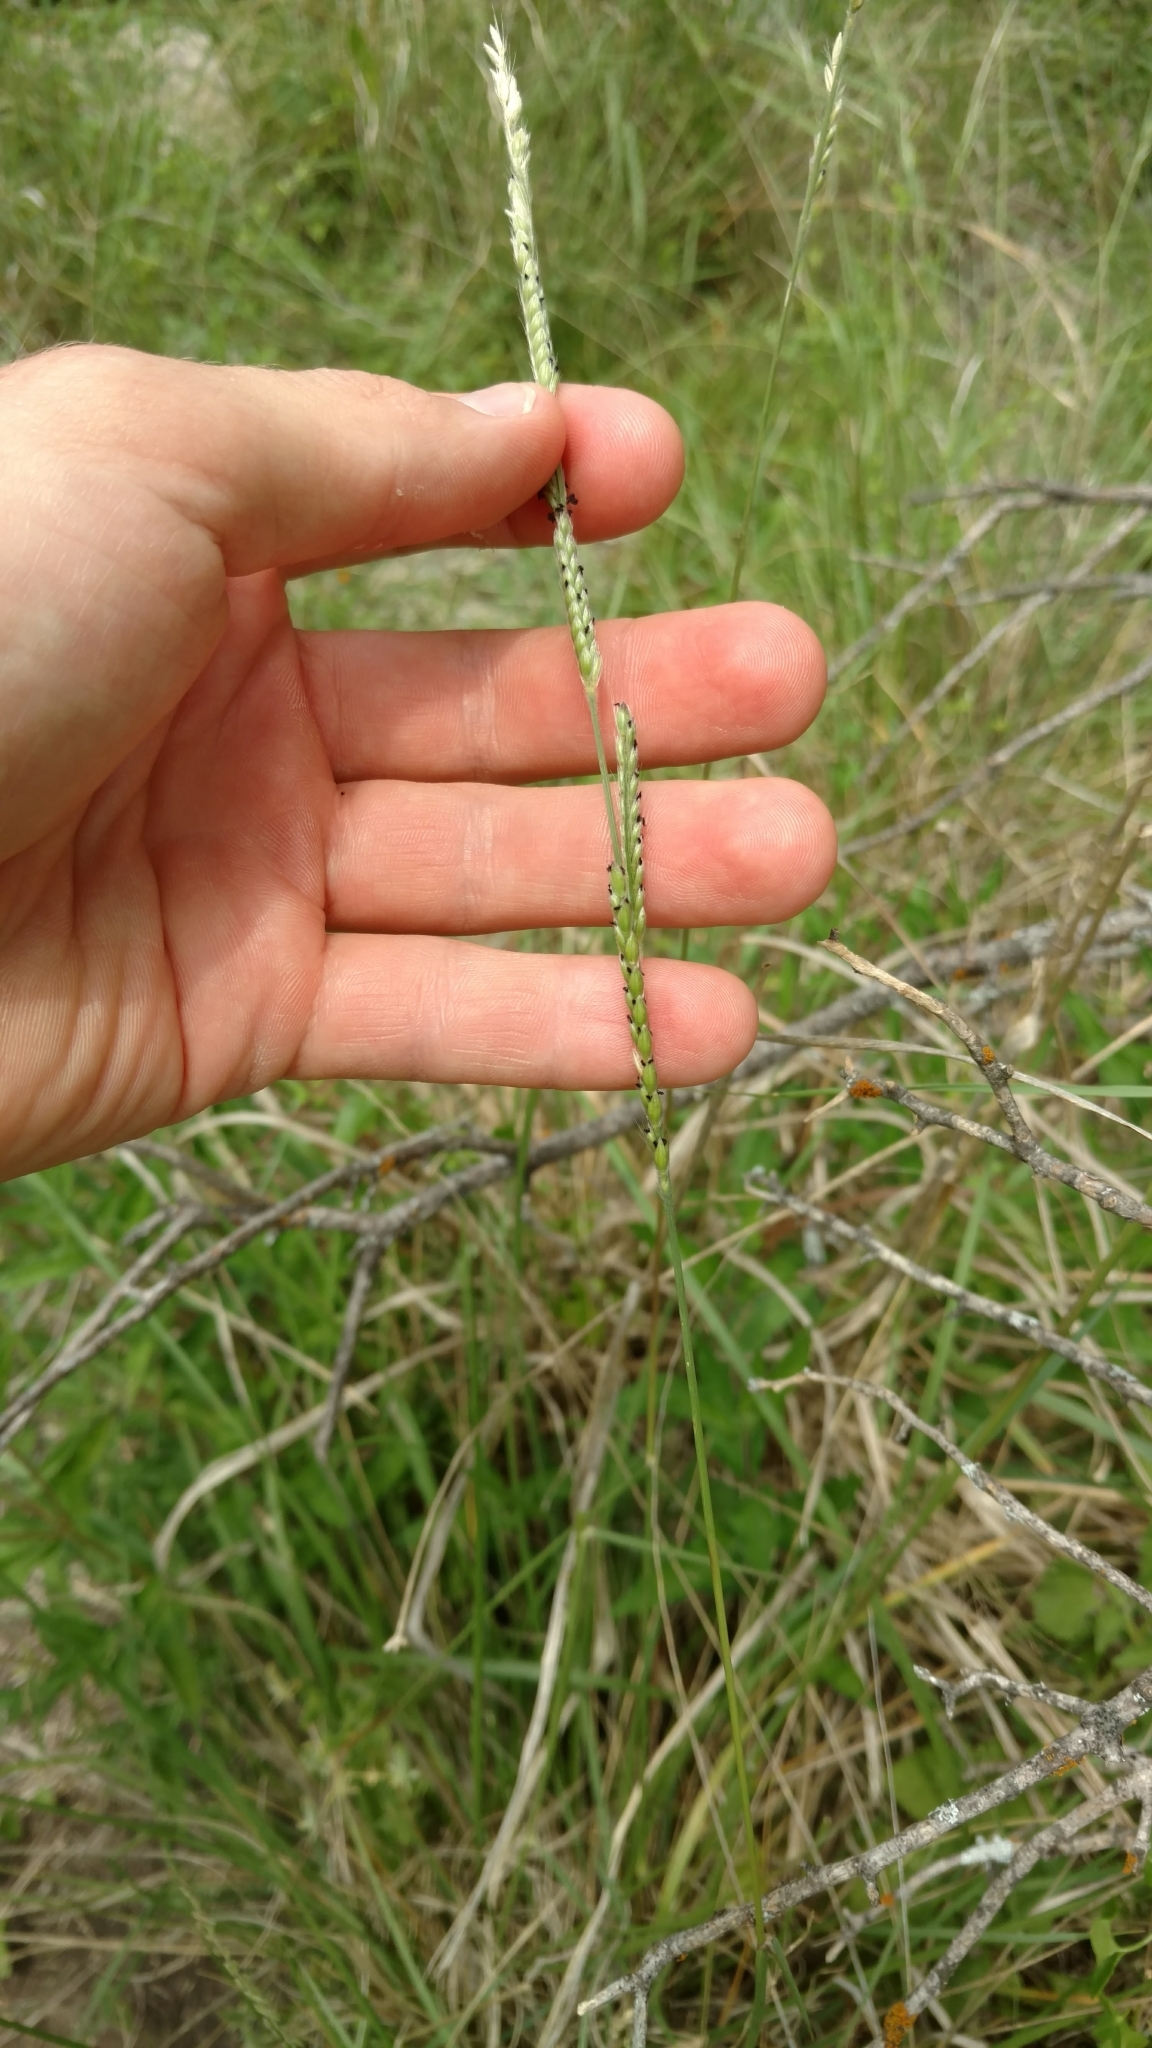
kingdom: Plantae
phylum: Tracheophyta
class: Liliopsida
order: Poales
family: Poaceae
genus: Eriochloa
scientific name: Eriochloa sericea
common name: Texas cup grass
